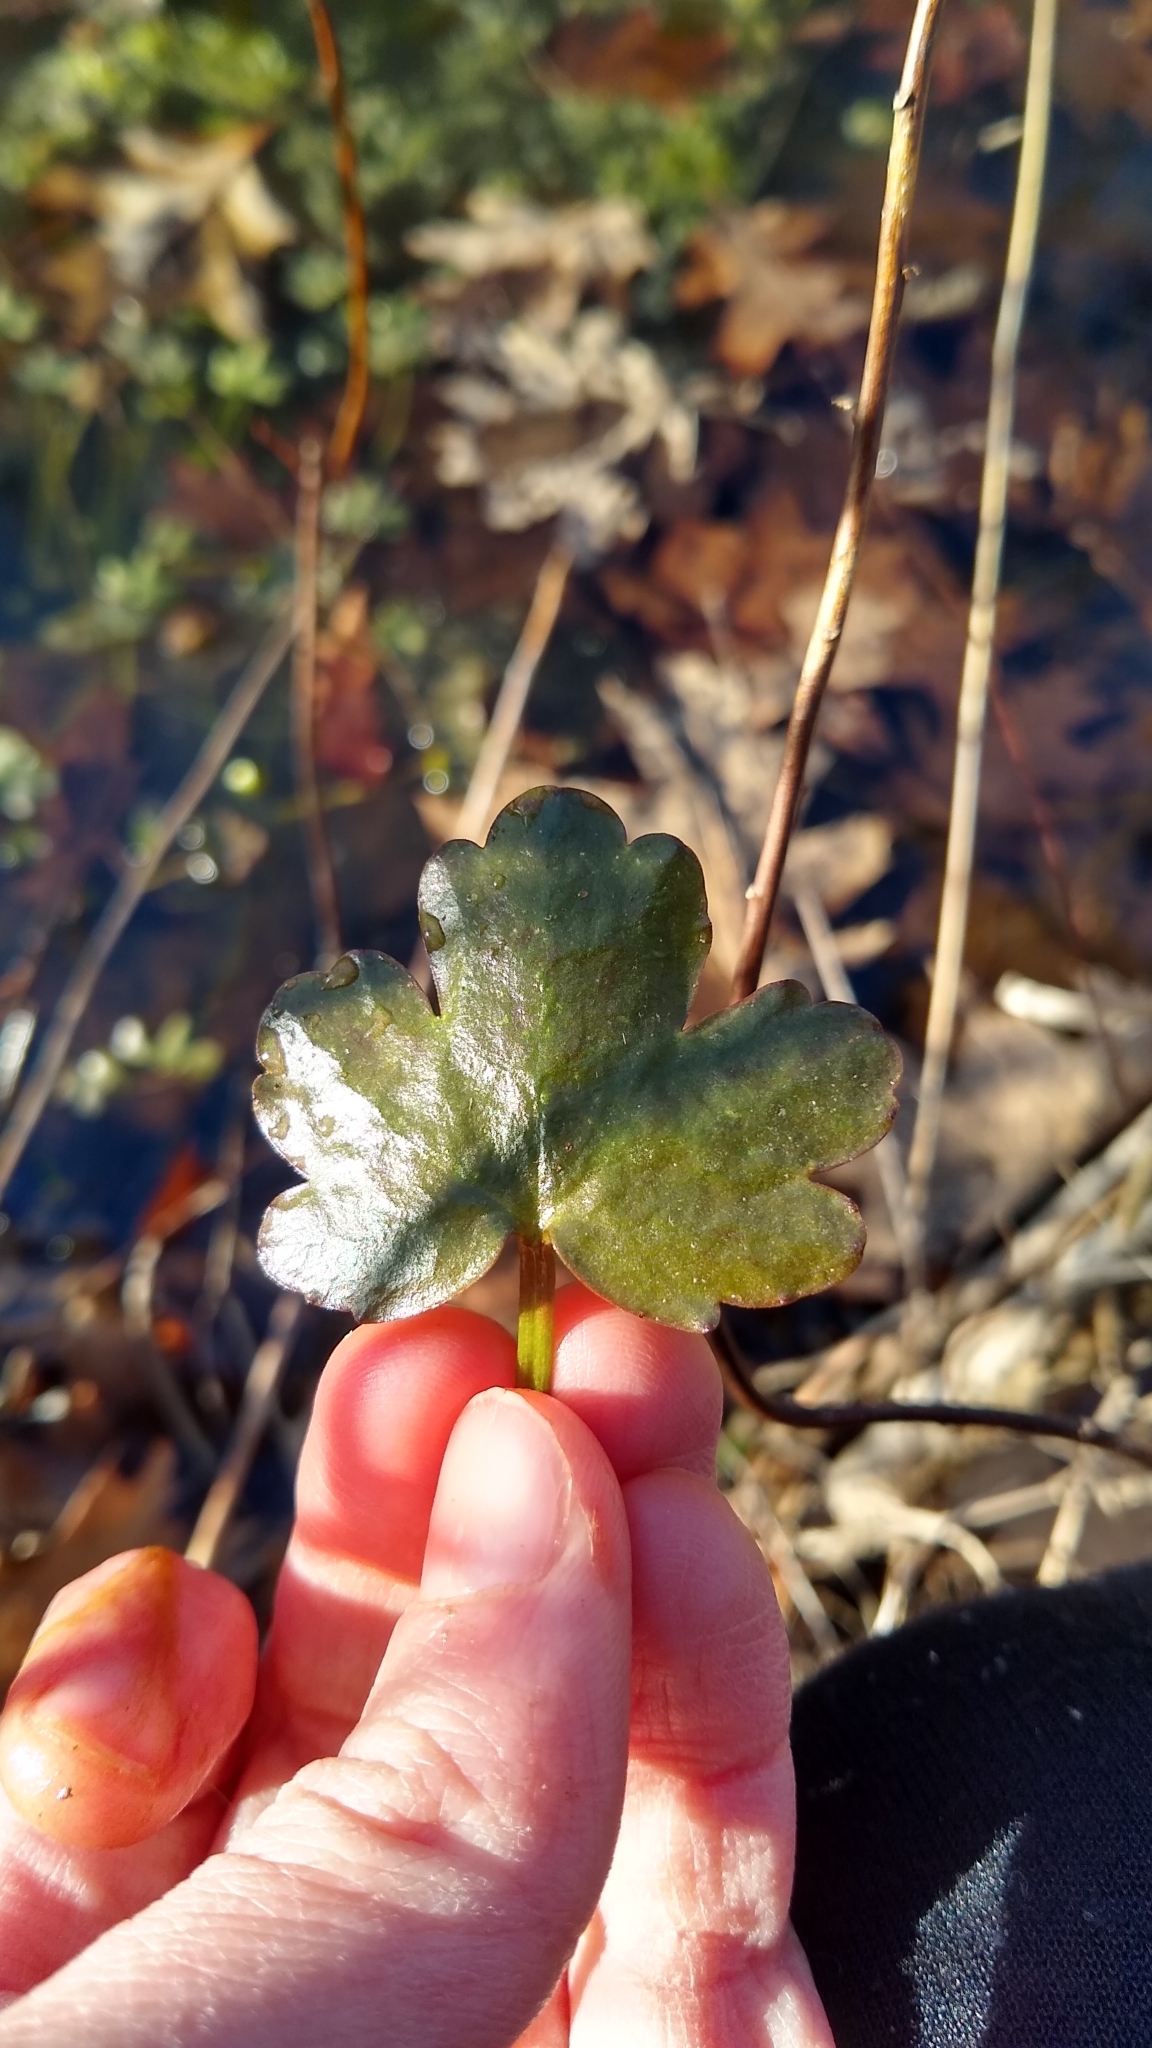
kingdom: Plantae
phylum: Tracheophyta
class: Magnoliopsida
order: Ranunculales
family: Ranunculaceae
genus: Ranunculus
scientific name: Ranunculus sceleratus
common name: Celery-leaved buttercup
